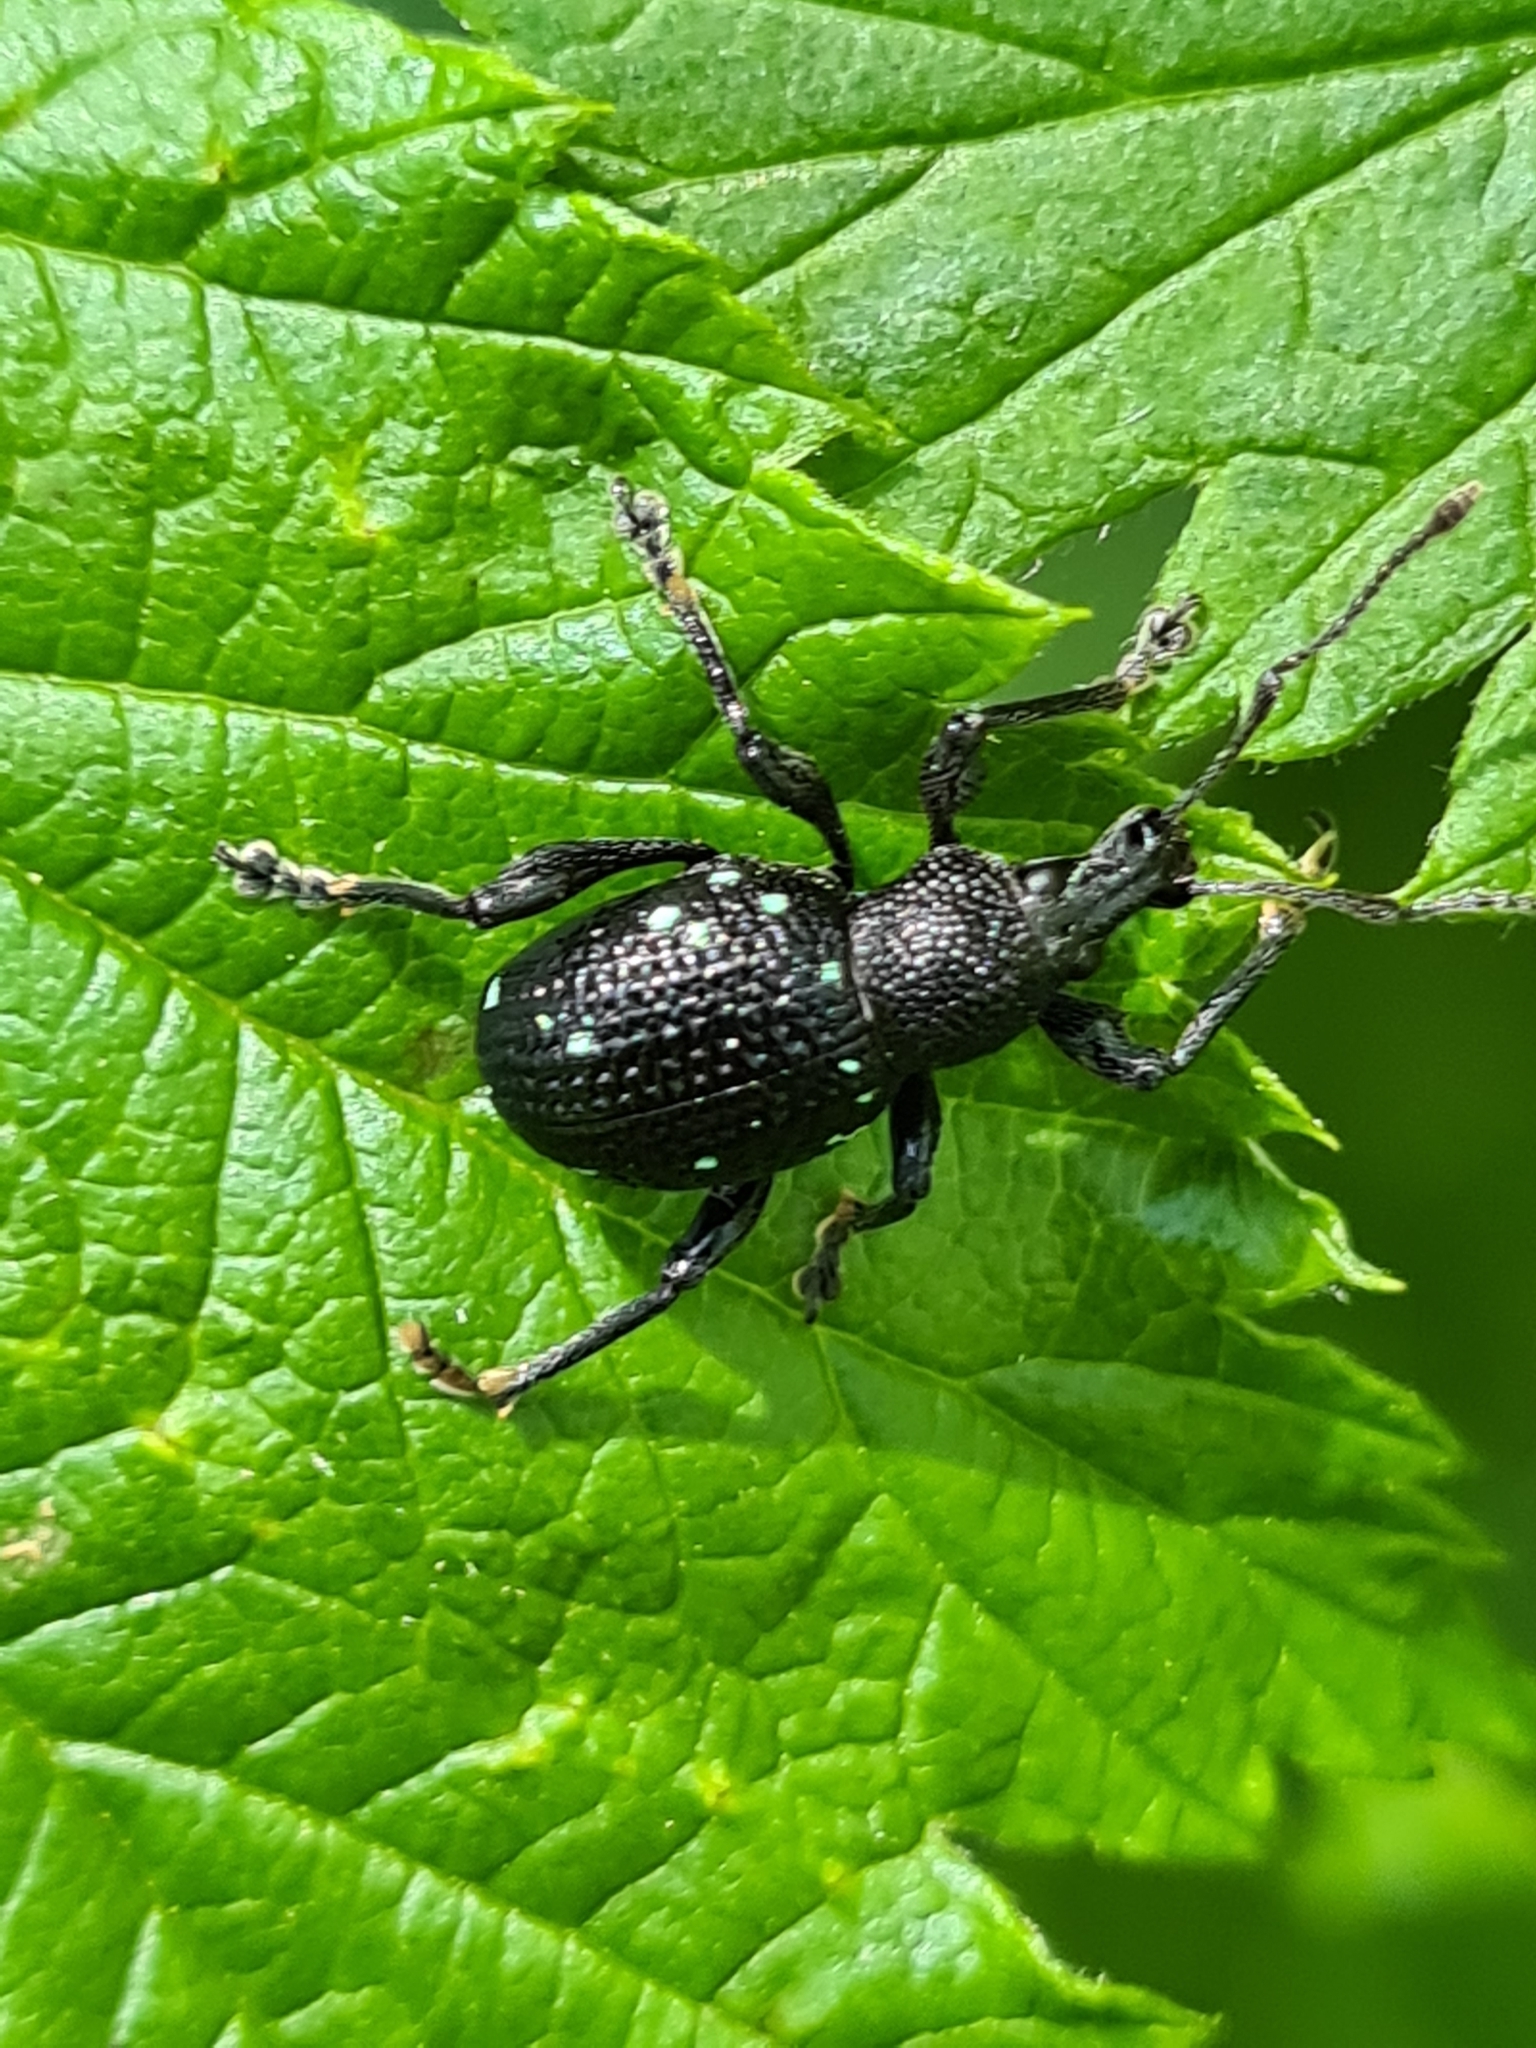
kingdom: Animalia
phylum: Arthropoda
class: Insecta
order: Coleoptera
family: Curculionidae
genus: Otiorhynchus
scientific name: Otiorhynchus gemmatus
